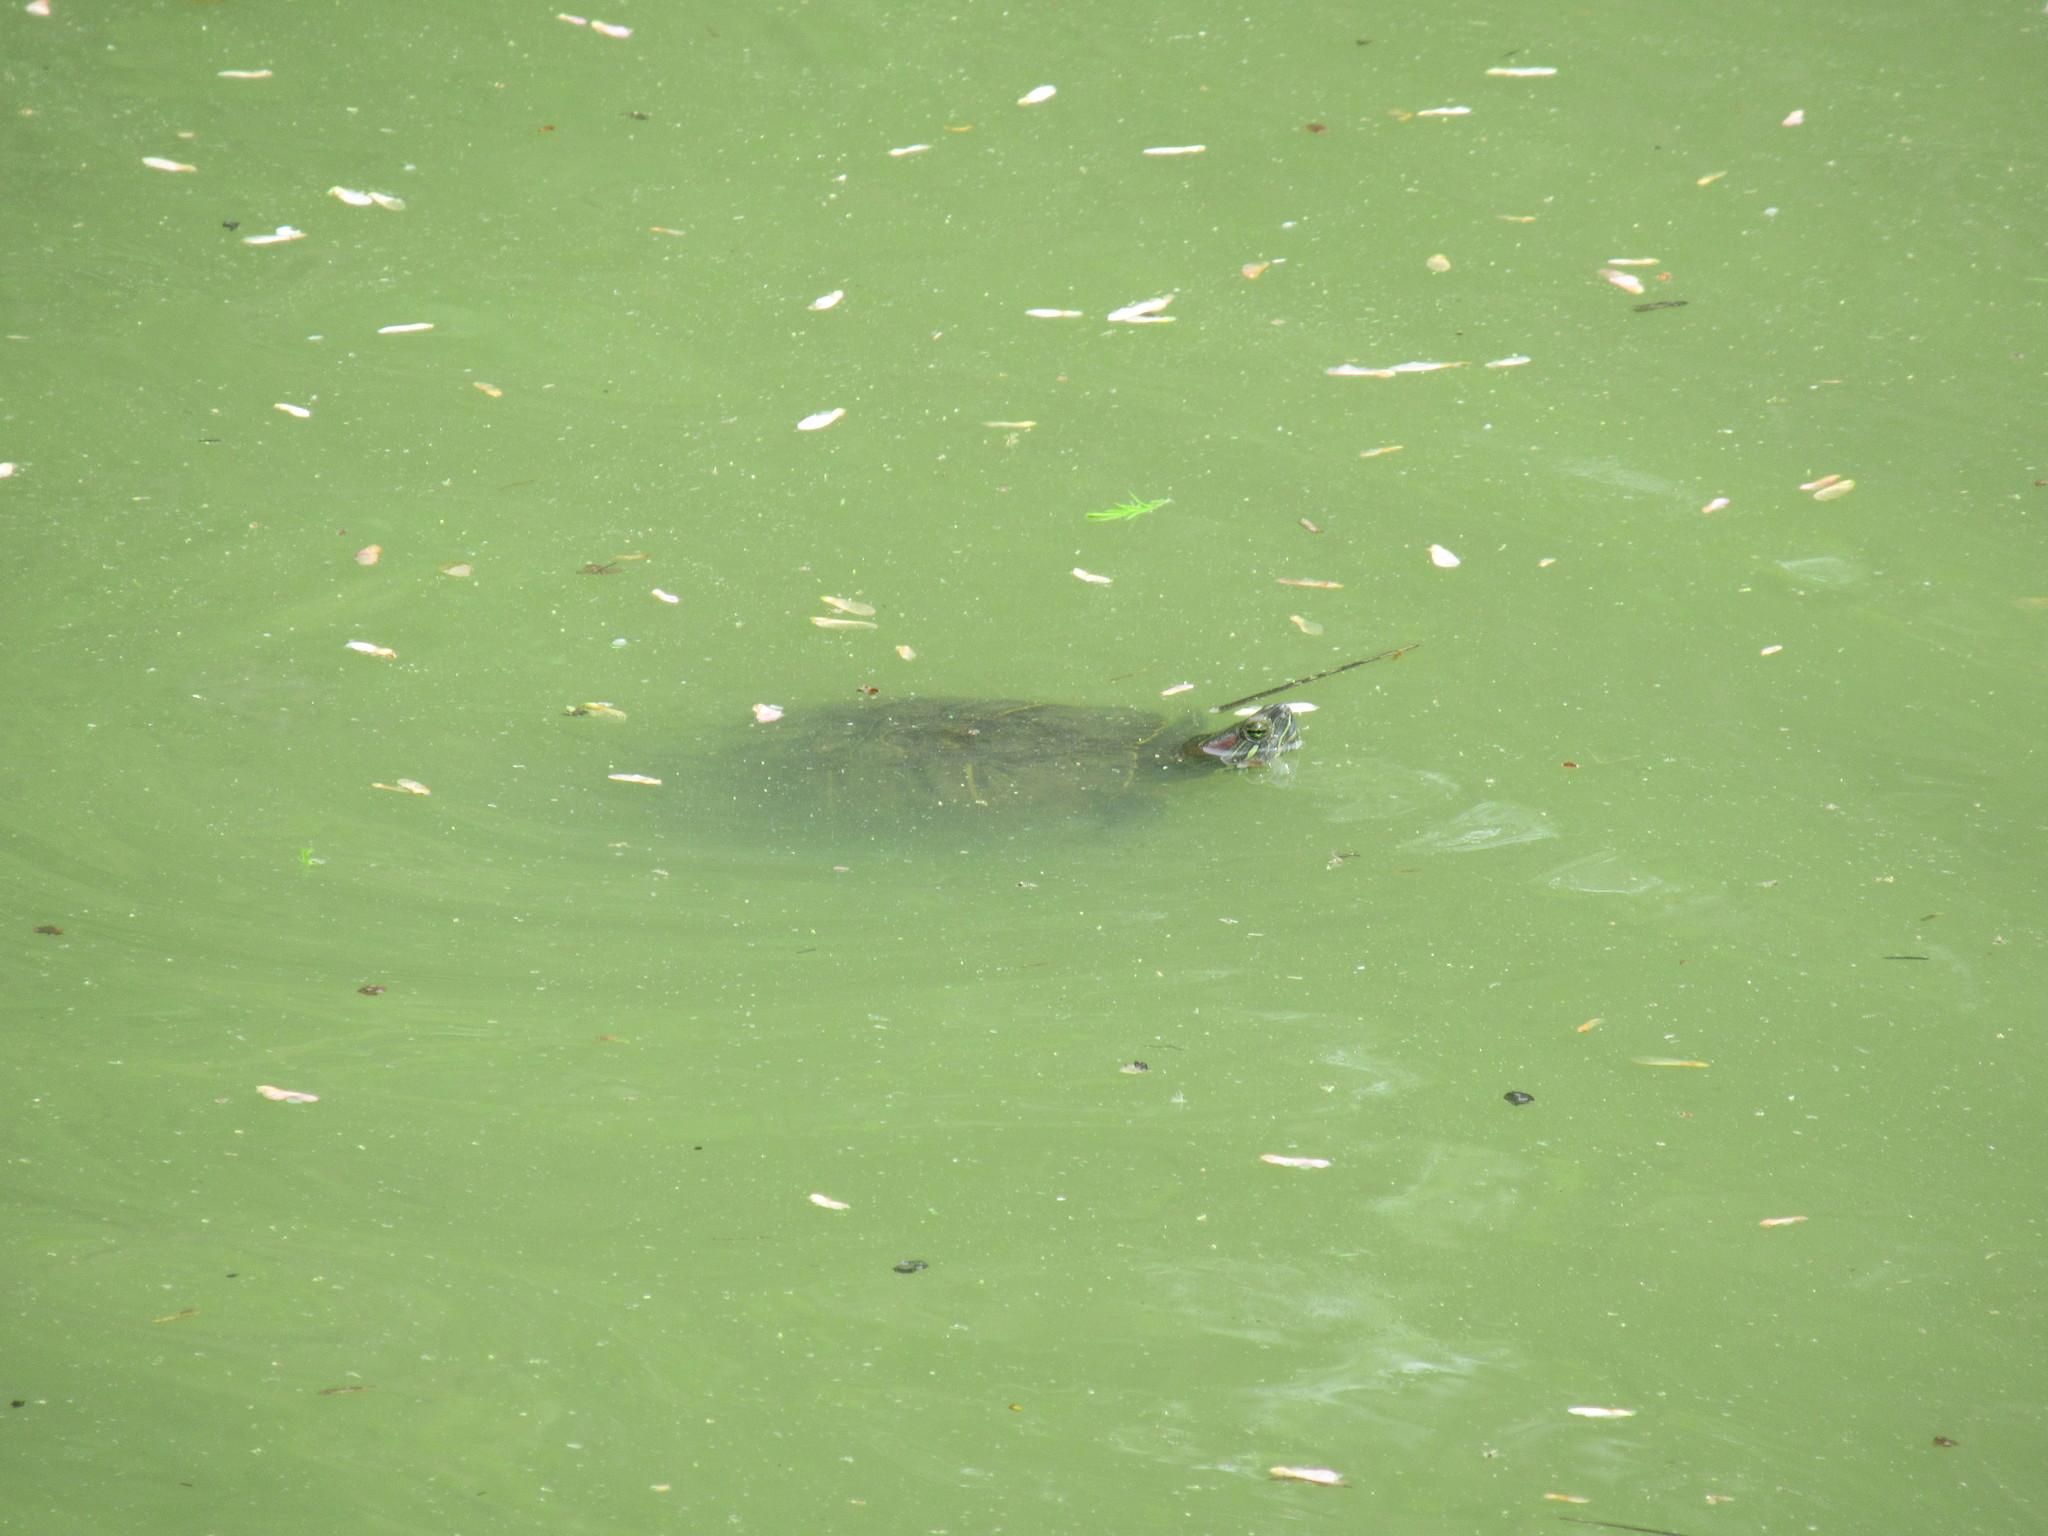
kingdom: Animalia
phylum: Chordata
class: Testudines
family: Emydidae
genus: Trachemys
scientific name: Trachemys scripta
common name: Slider
